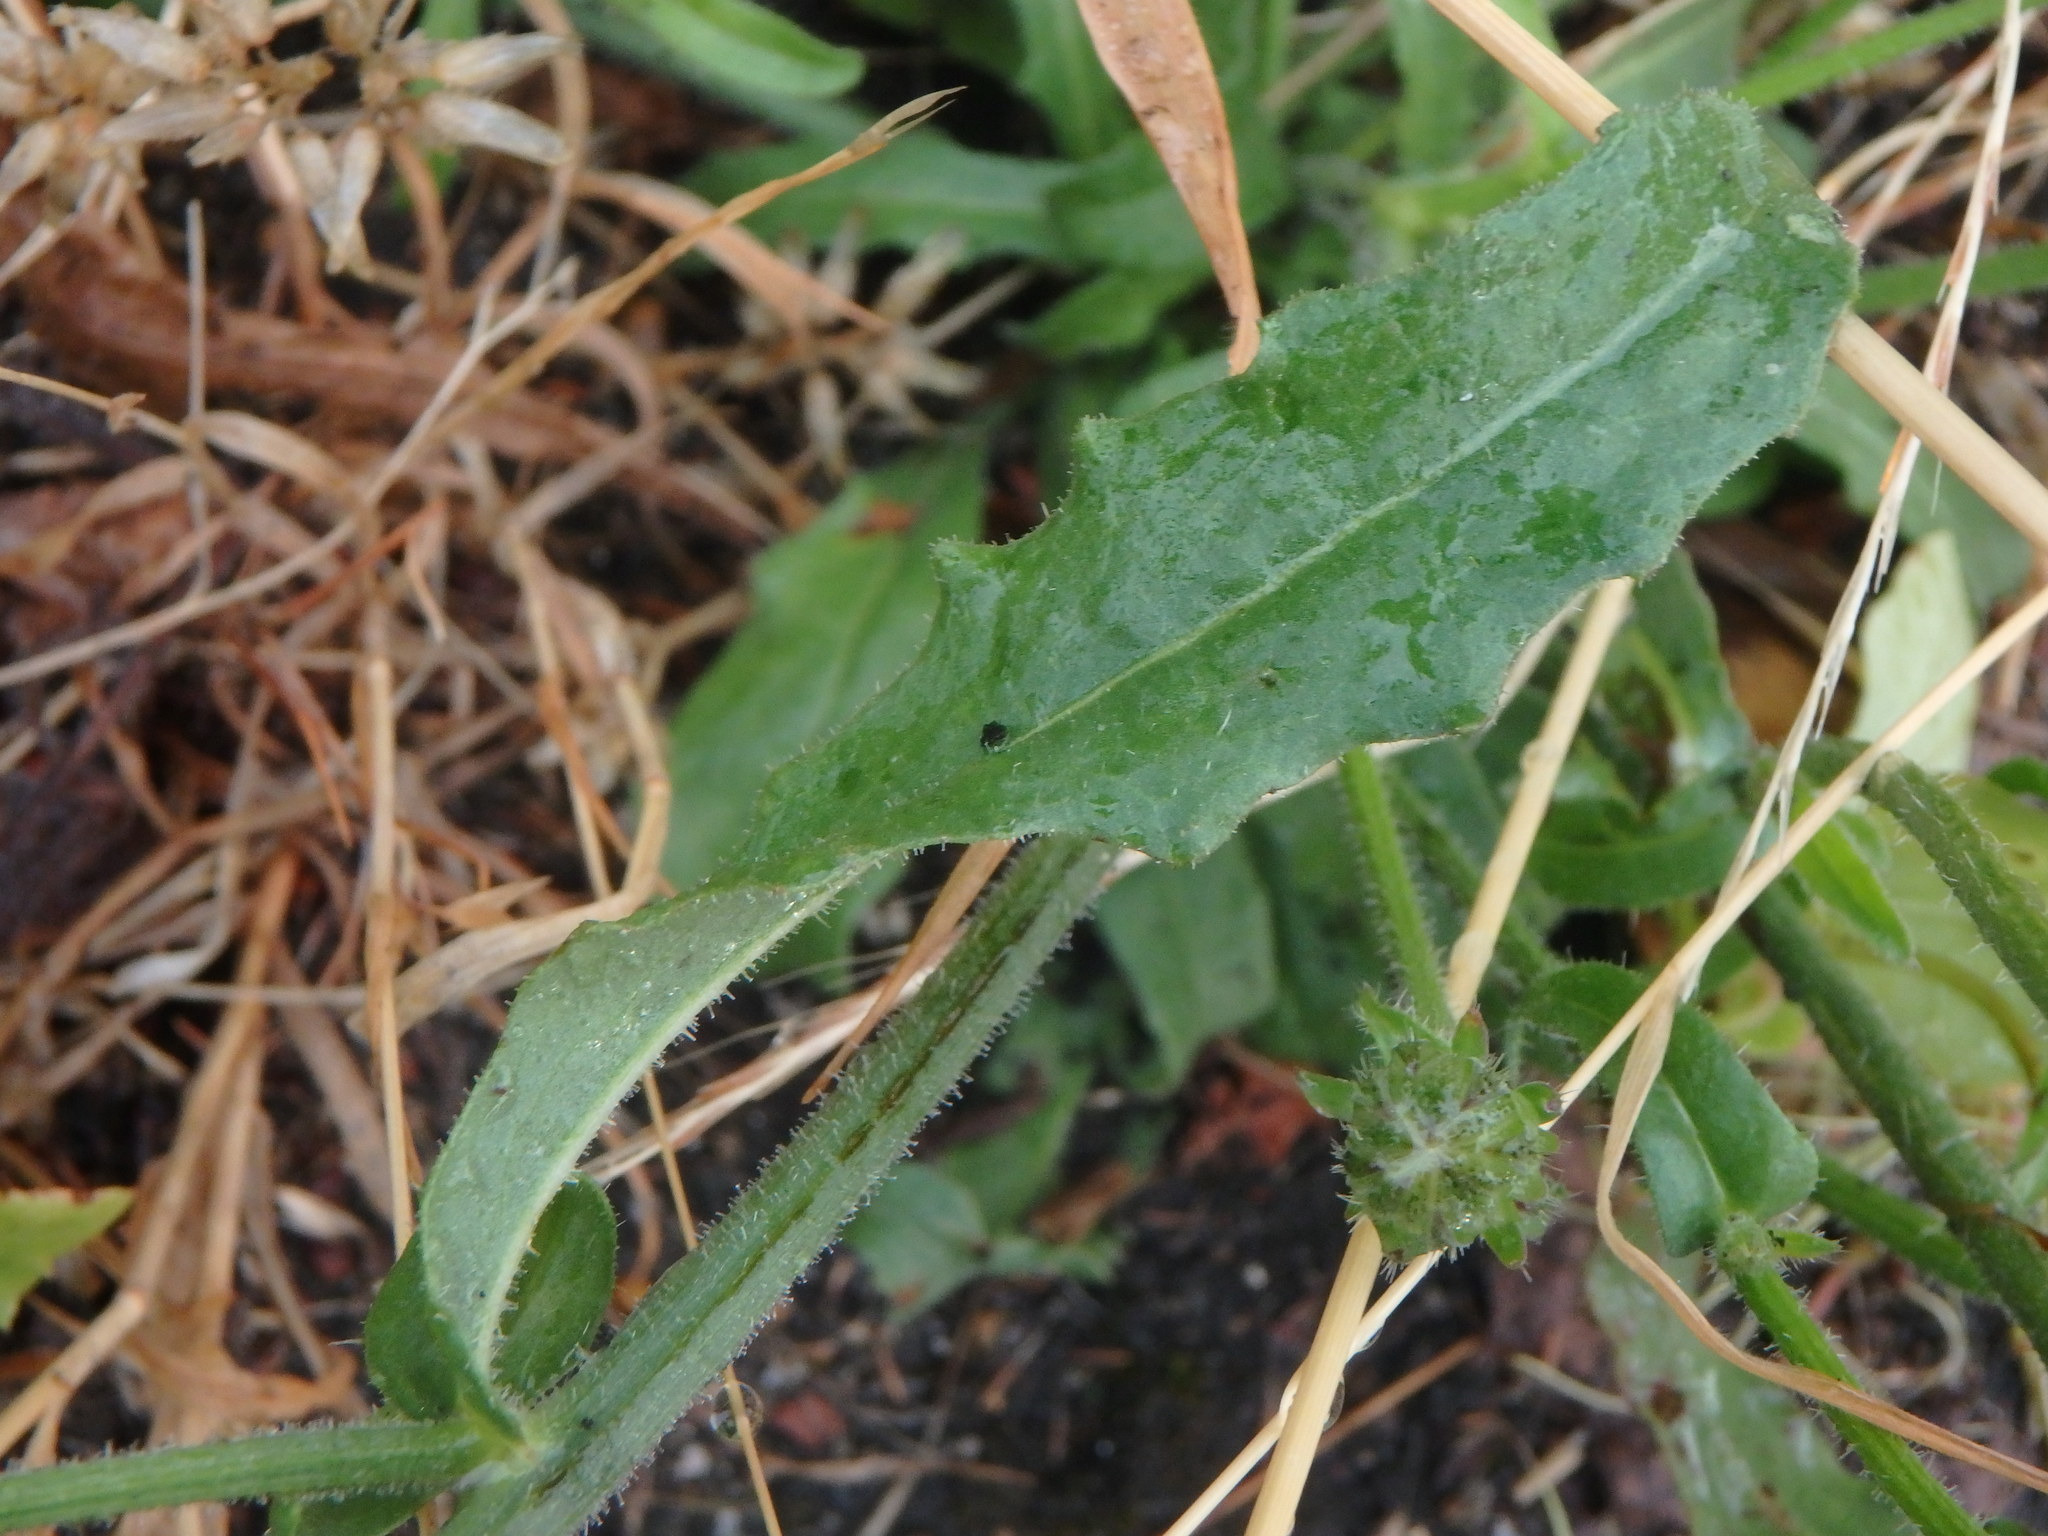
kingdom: Plantae
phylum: Tracheophyta
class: Magnoliopsida
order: Asterales
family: Asteraceae
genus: Picris
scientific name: Picris hieracioides
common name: Hawkweed oxtongue
